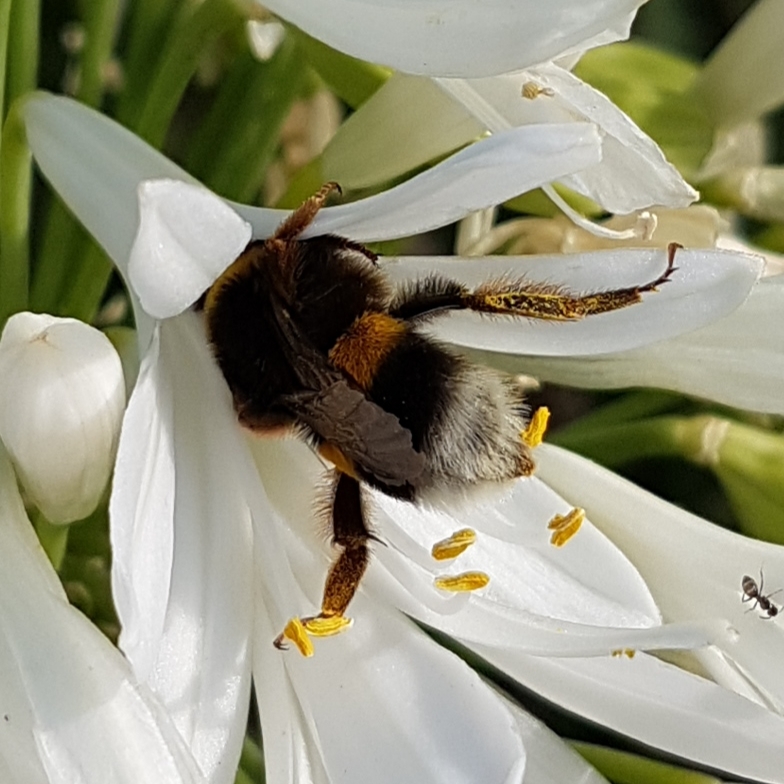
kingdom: Animalia
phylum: Arthropoda
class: Insecta
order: Hymenoptera
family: Apidae
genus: Bombus
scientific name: Bombus
